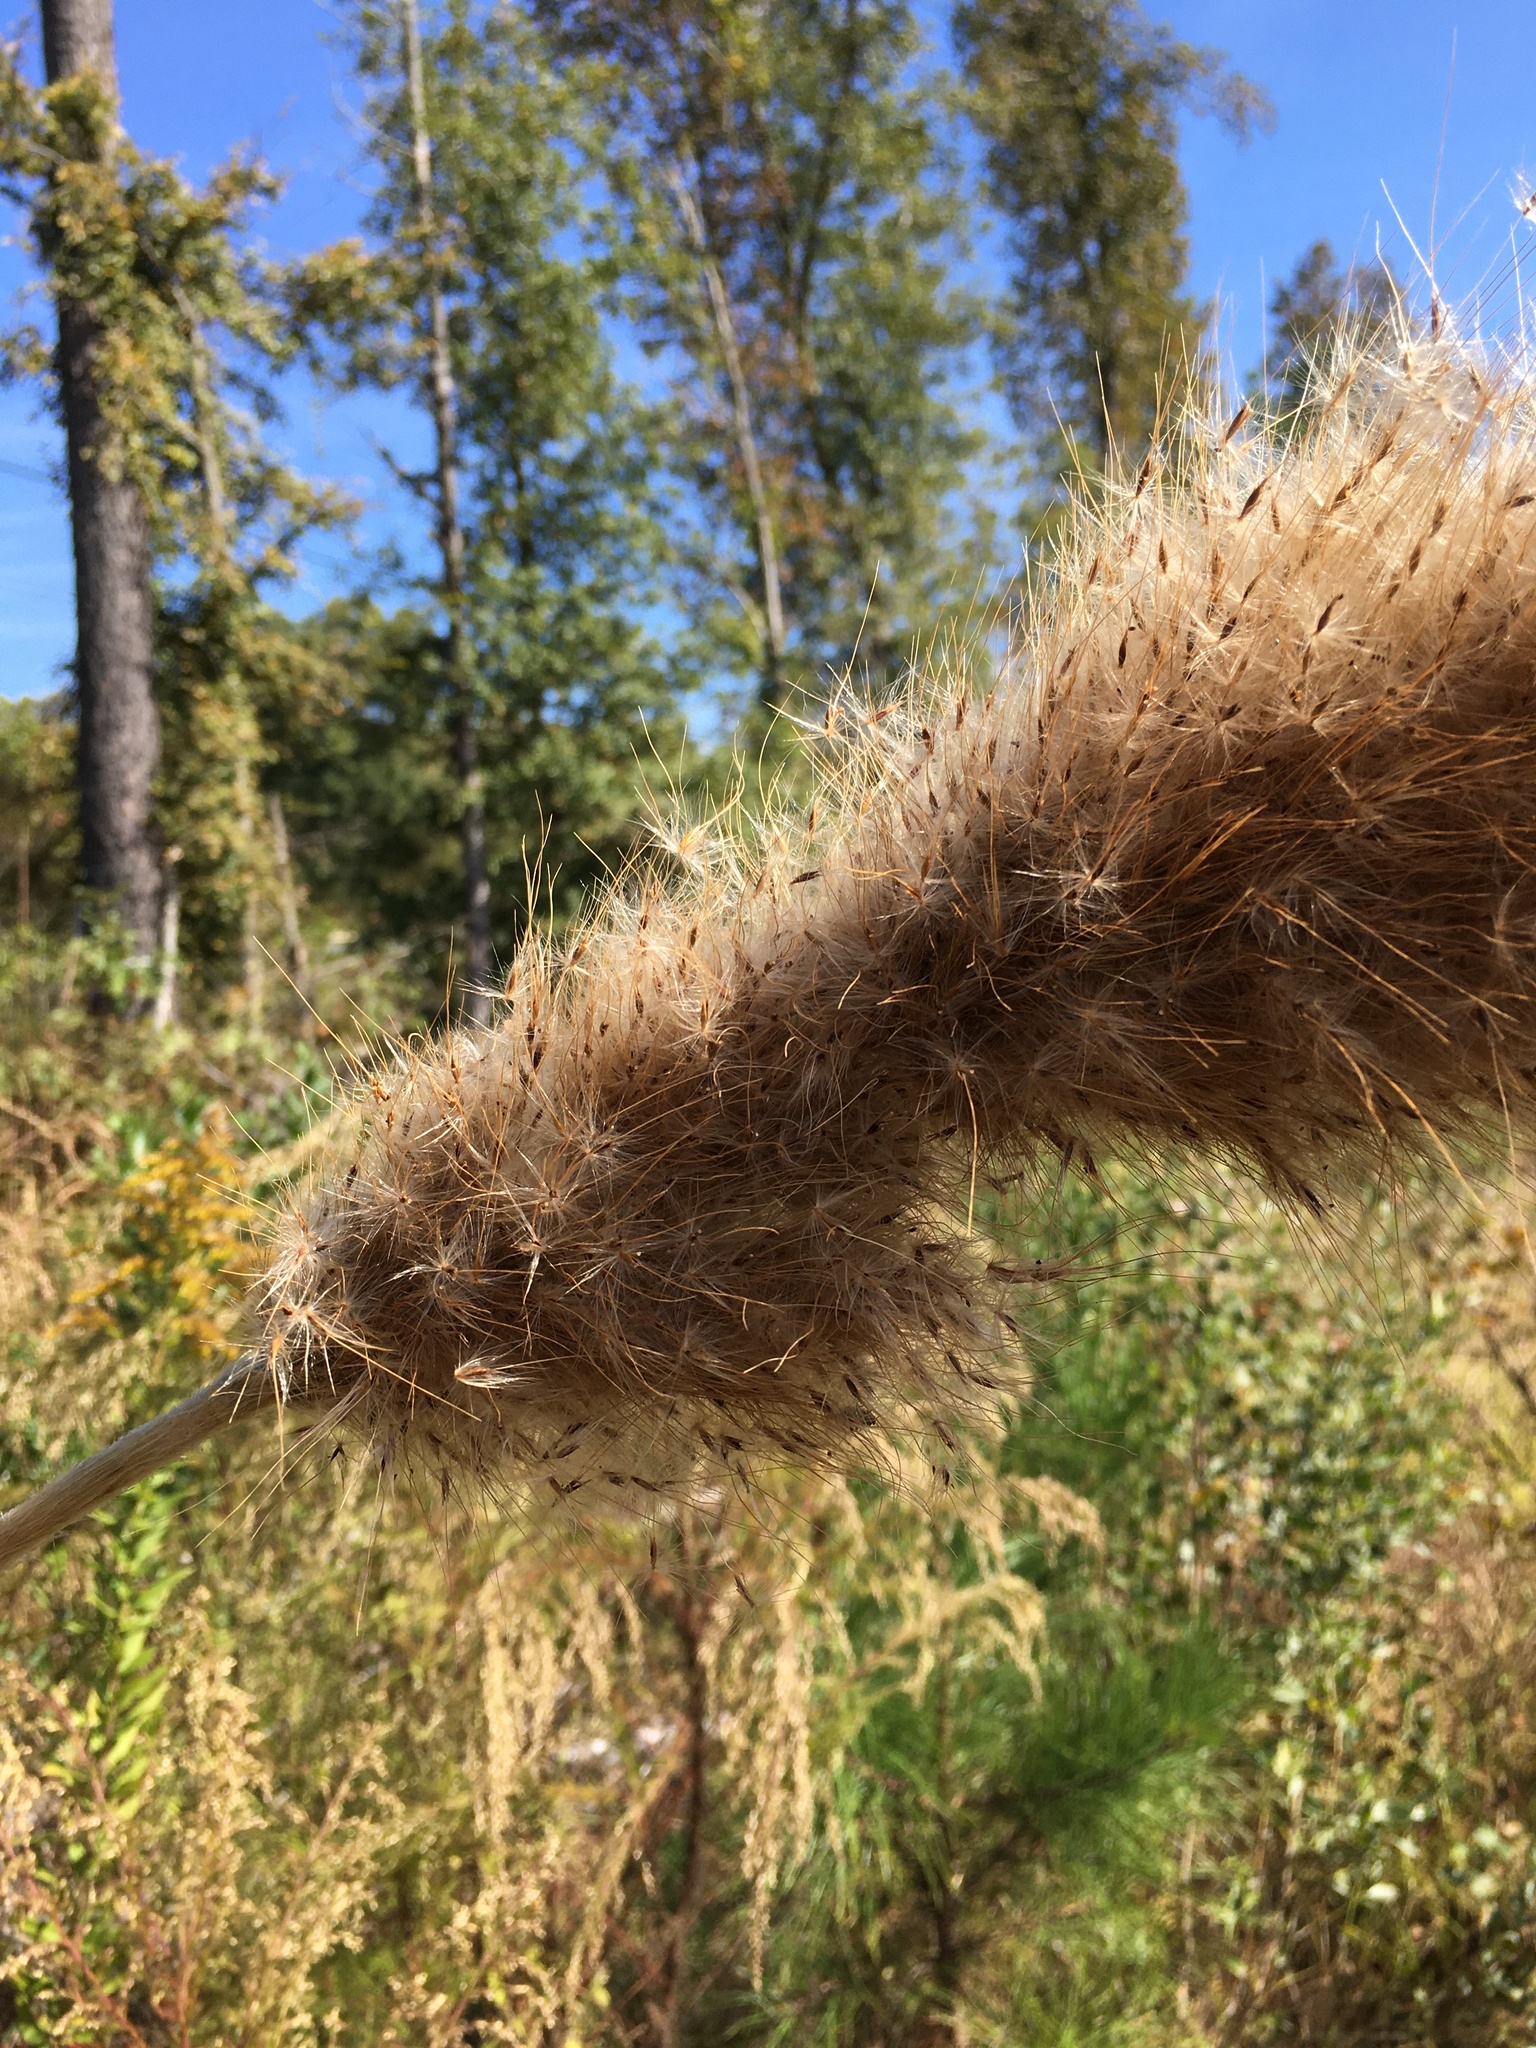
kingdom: Plantae
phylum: Tracheophyta
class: Liliopsida
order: Poales
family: Poaceae
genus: Erianthus
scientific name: Erianthus giganteus
